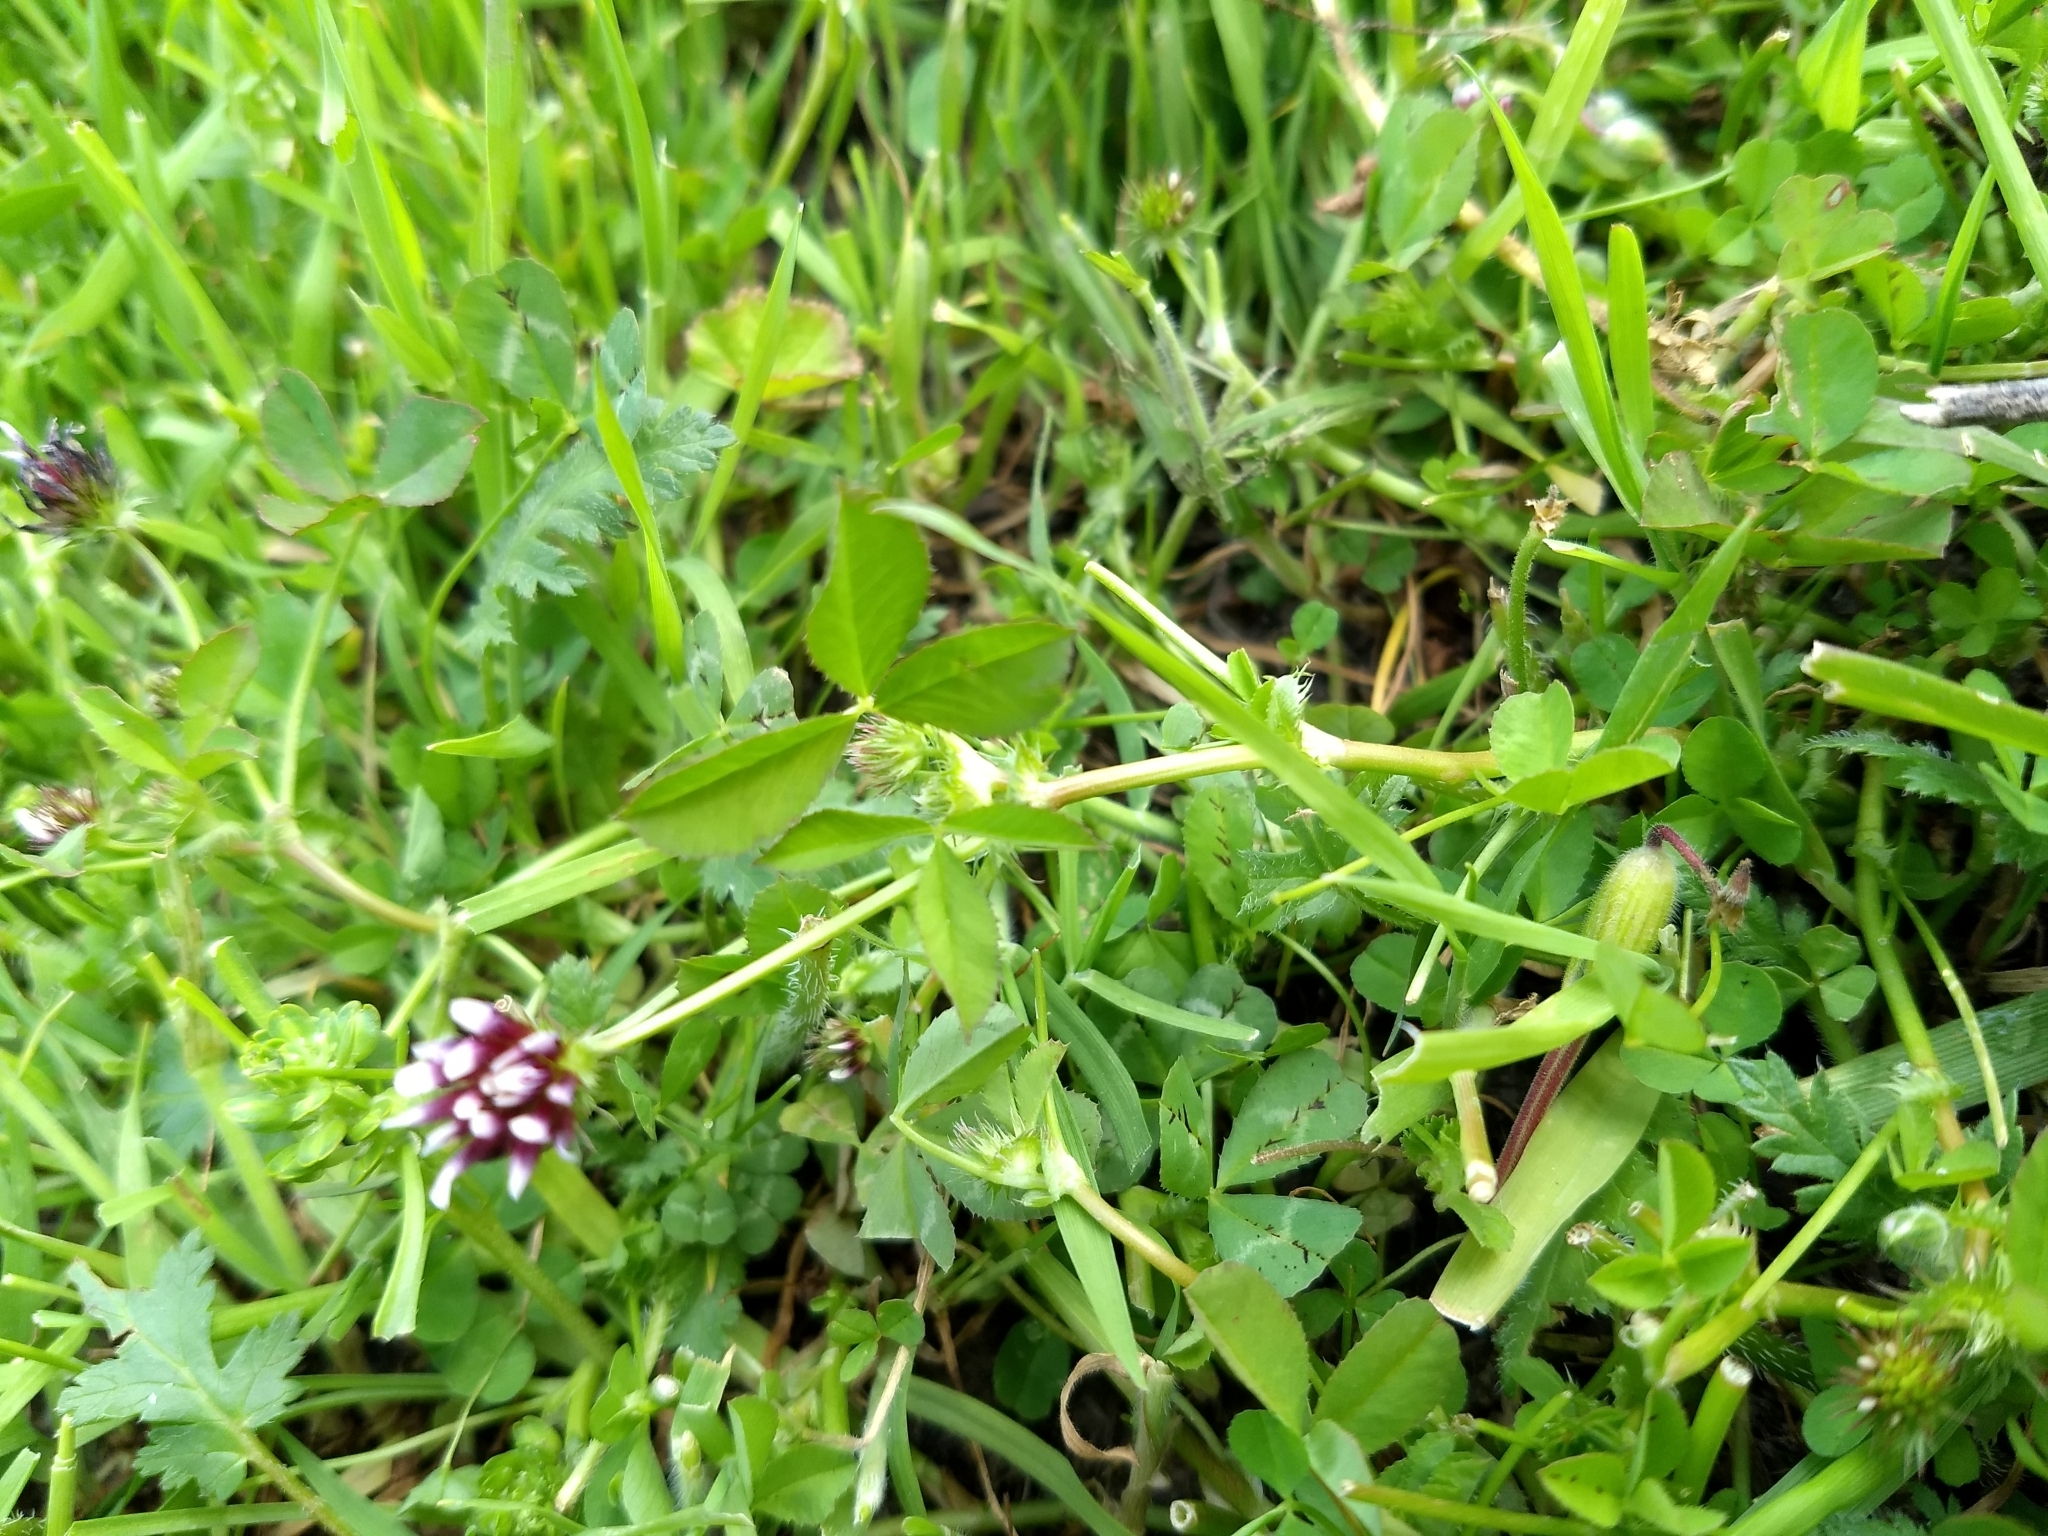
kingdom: Plantae
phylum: Tracheophyta
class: Magnoliopsida
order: Fabales
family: Fabaceae
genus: Trifolium
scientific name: Trifolium variegatum
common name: Whitetip clover
